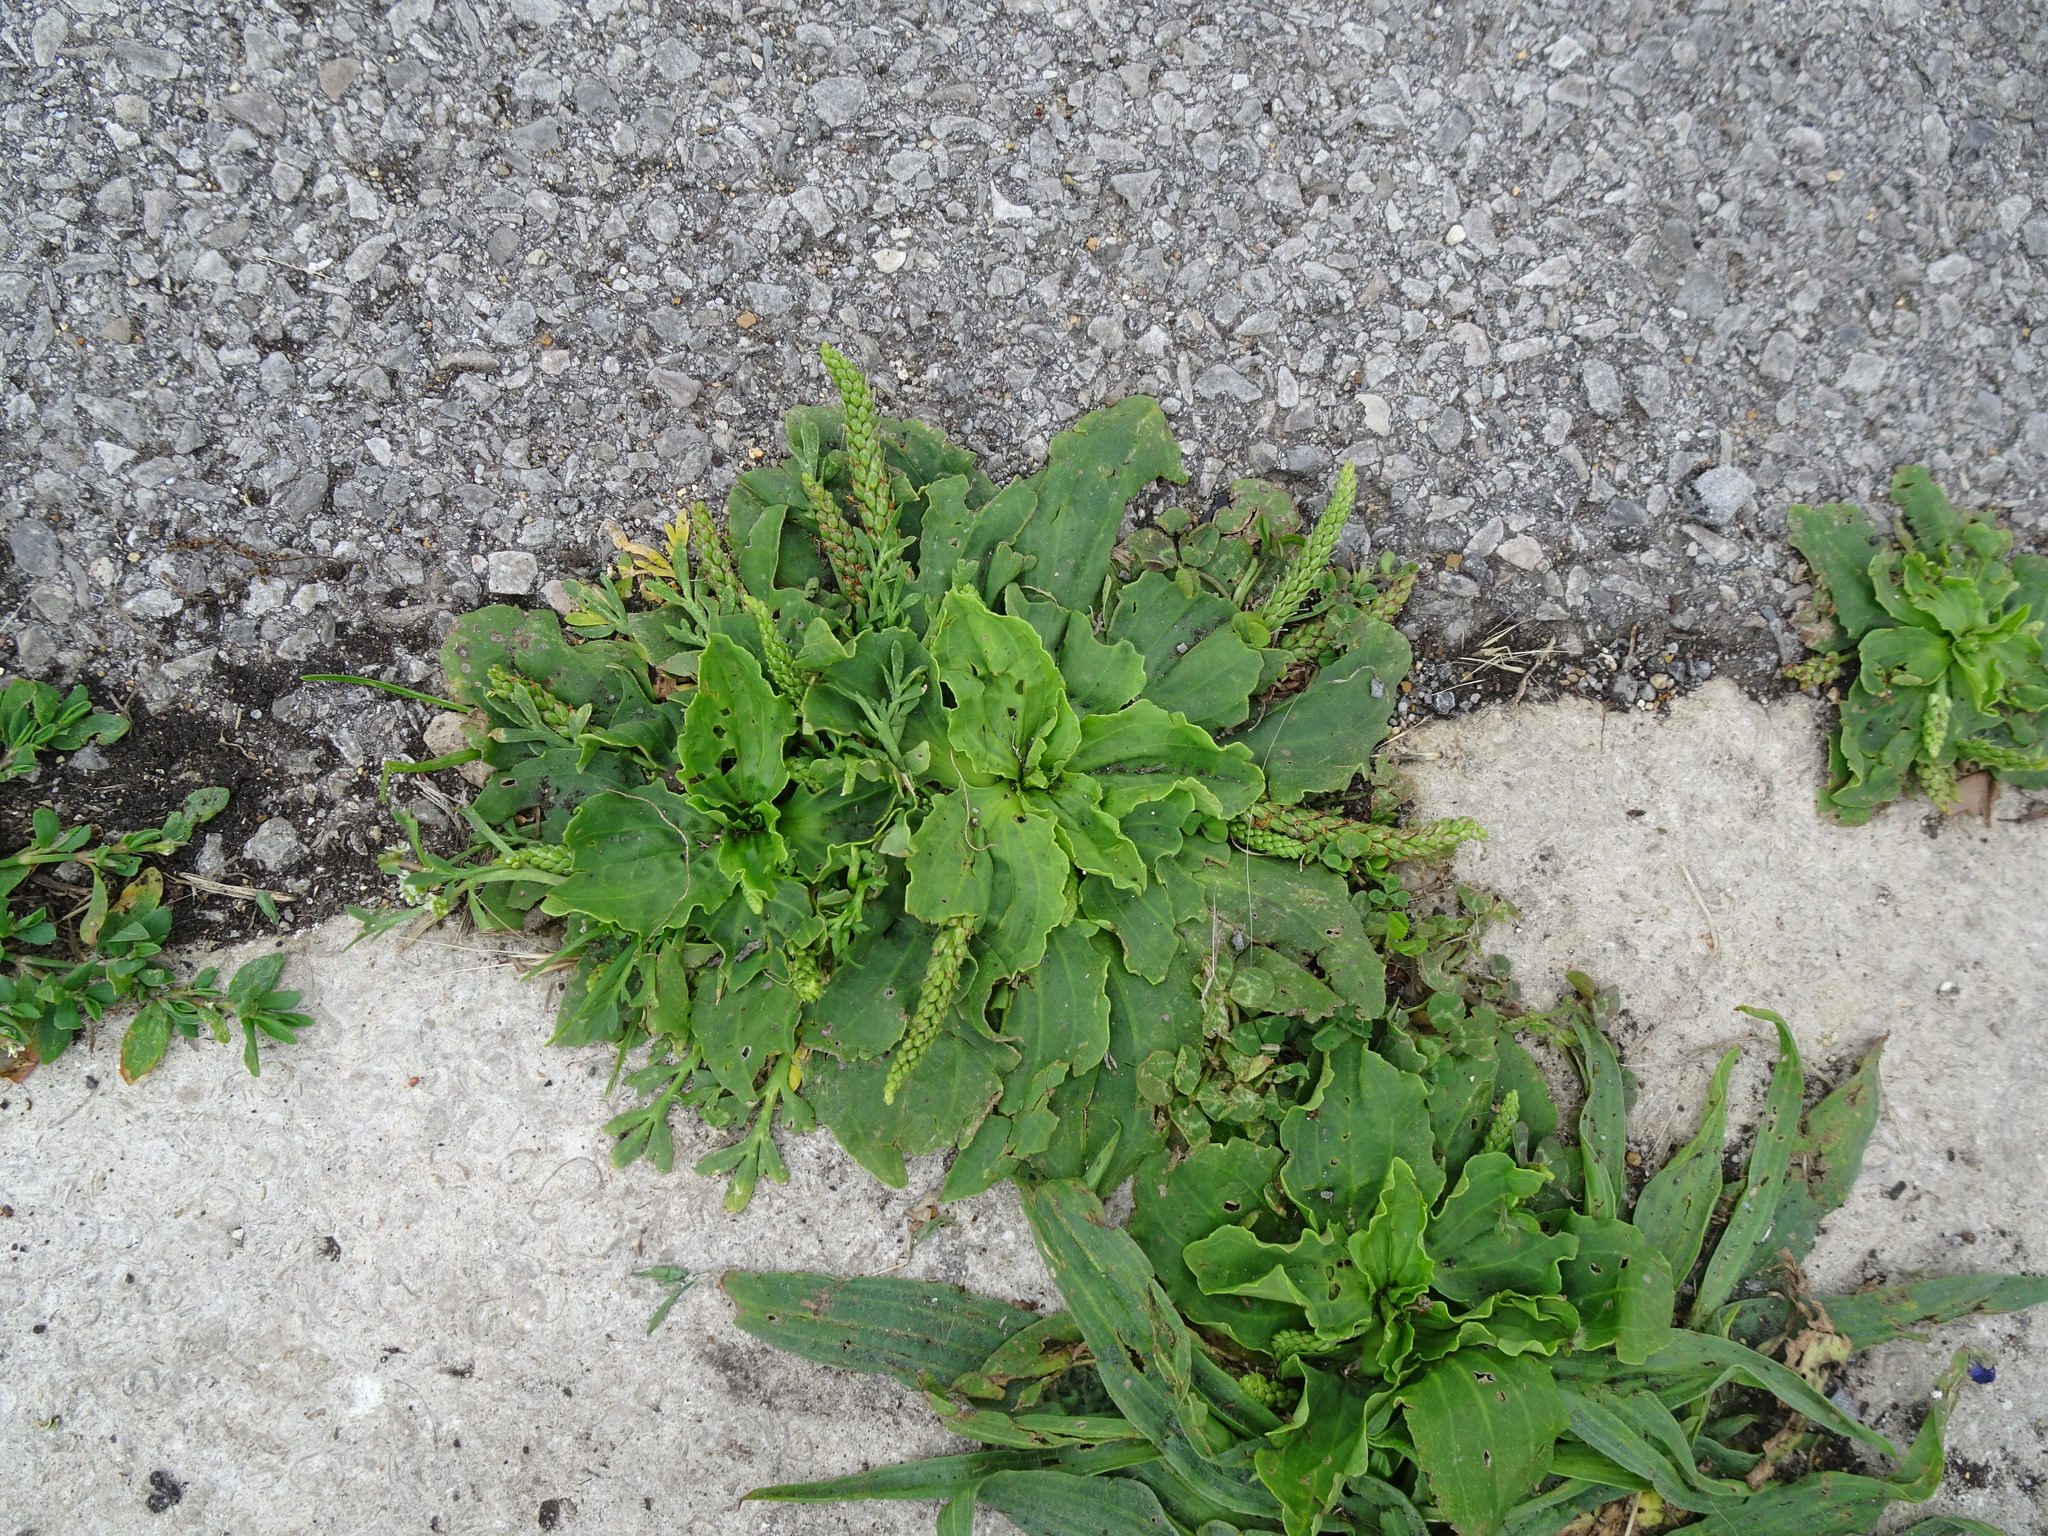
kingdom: Plantae
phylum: Tracheophyta
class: Magnoliopsida
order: Lamiales
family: Plantaginaceae
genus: Plantago
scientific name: Plantago major
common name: Common plantain
